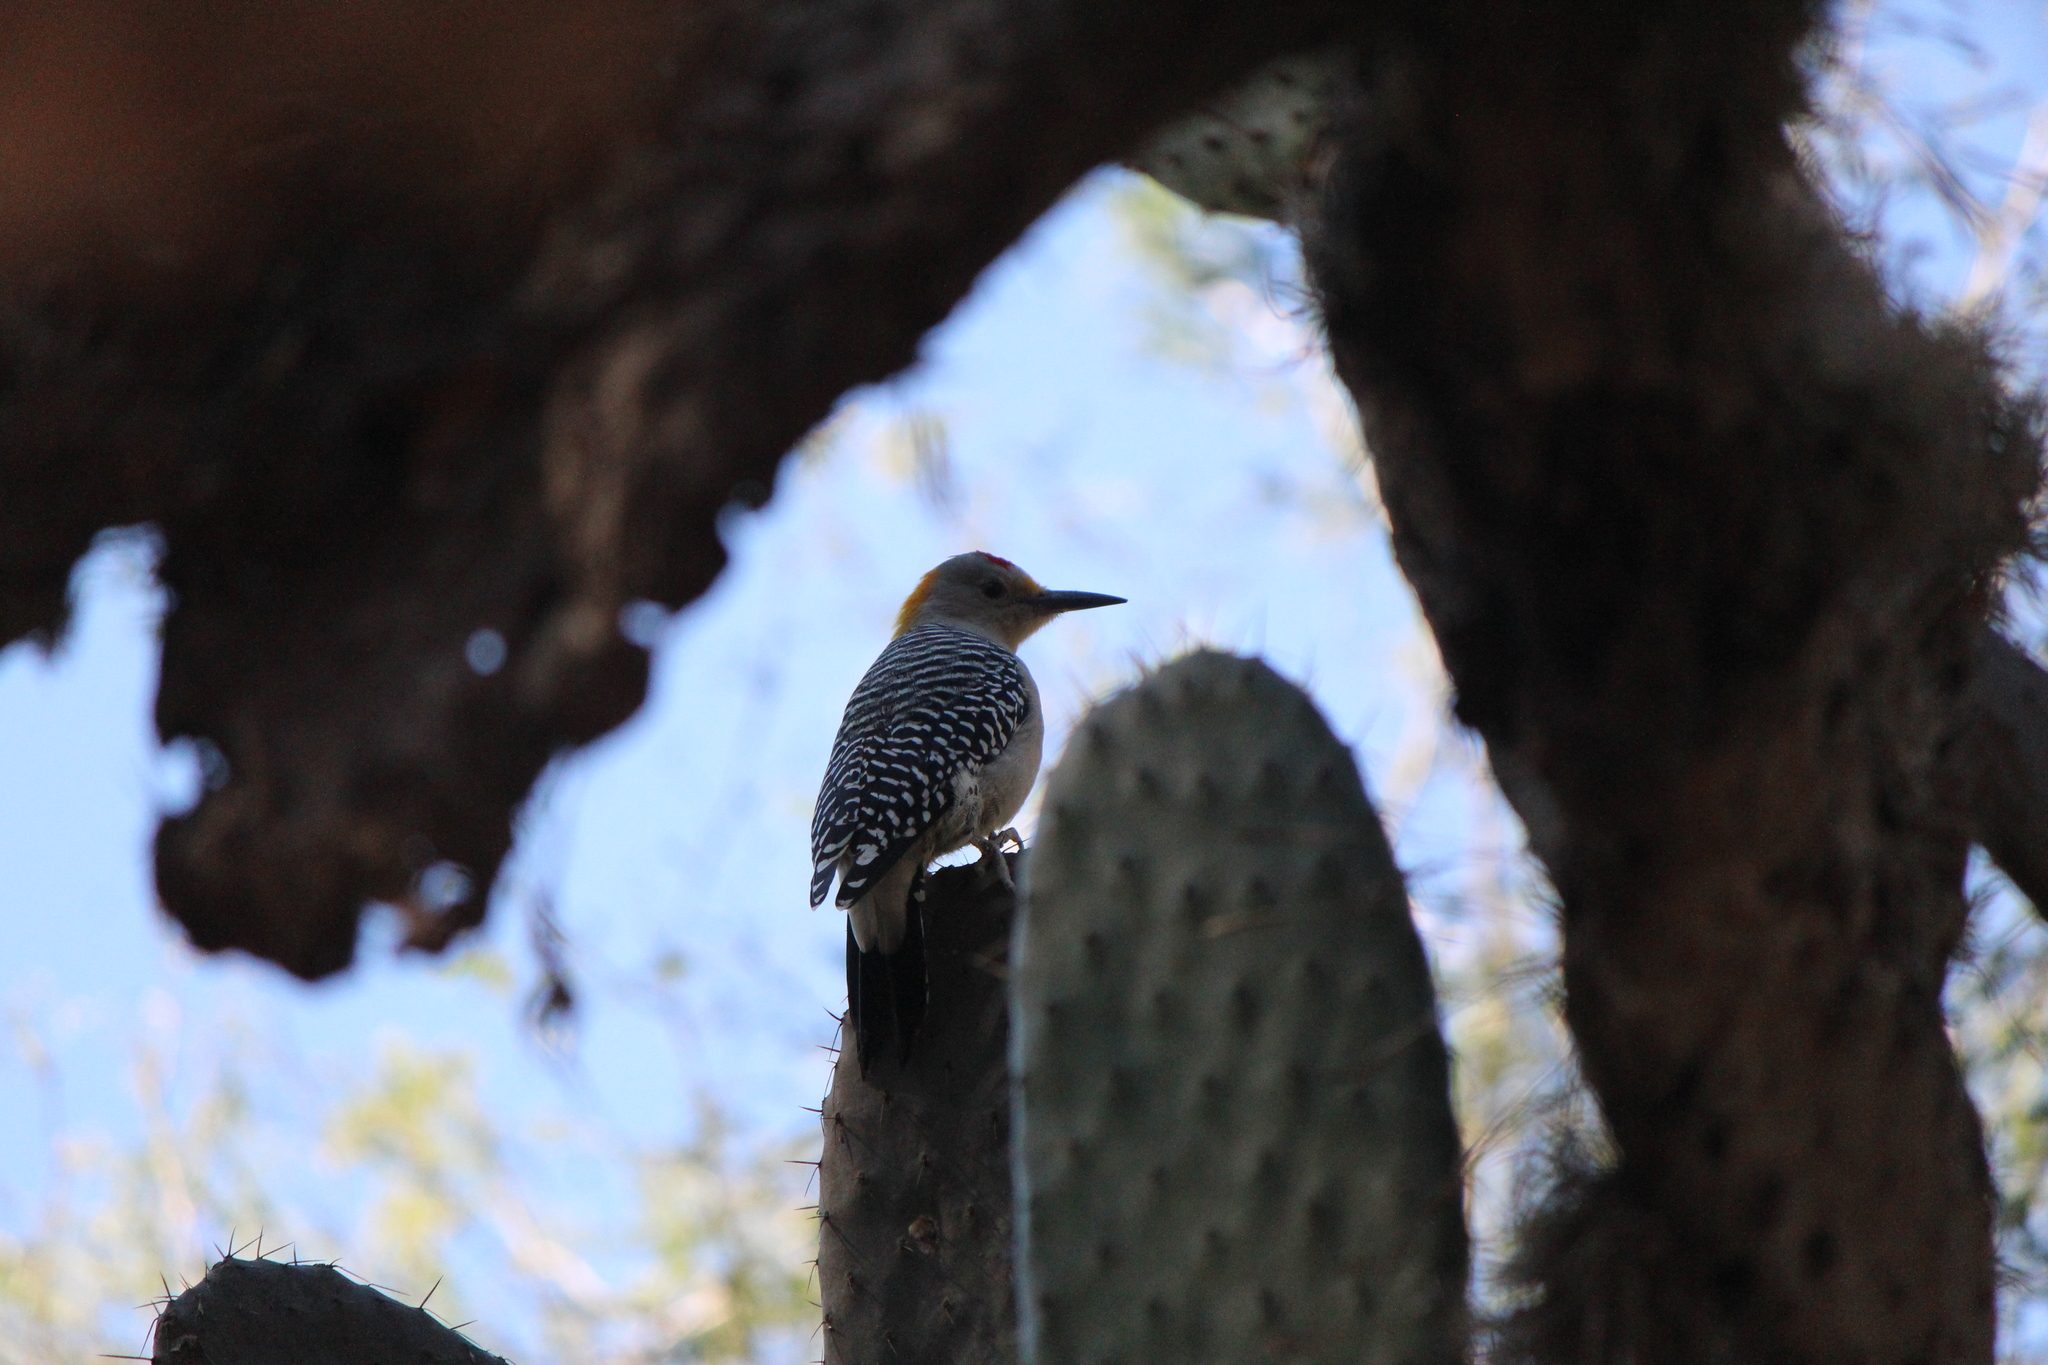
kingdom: Animalia
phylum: Chordata
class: Aves
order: Piciformes
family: Picidae
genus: Melanerpes
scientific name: Melanerpes aurifrons
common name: Golden-fronted woodpecker
